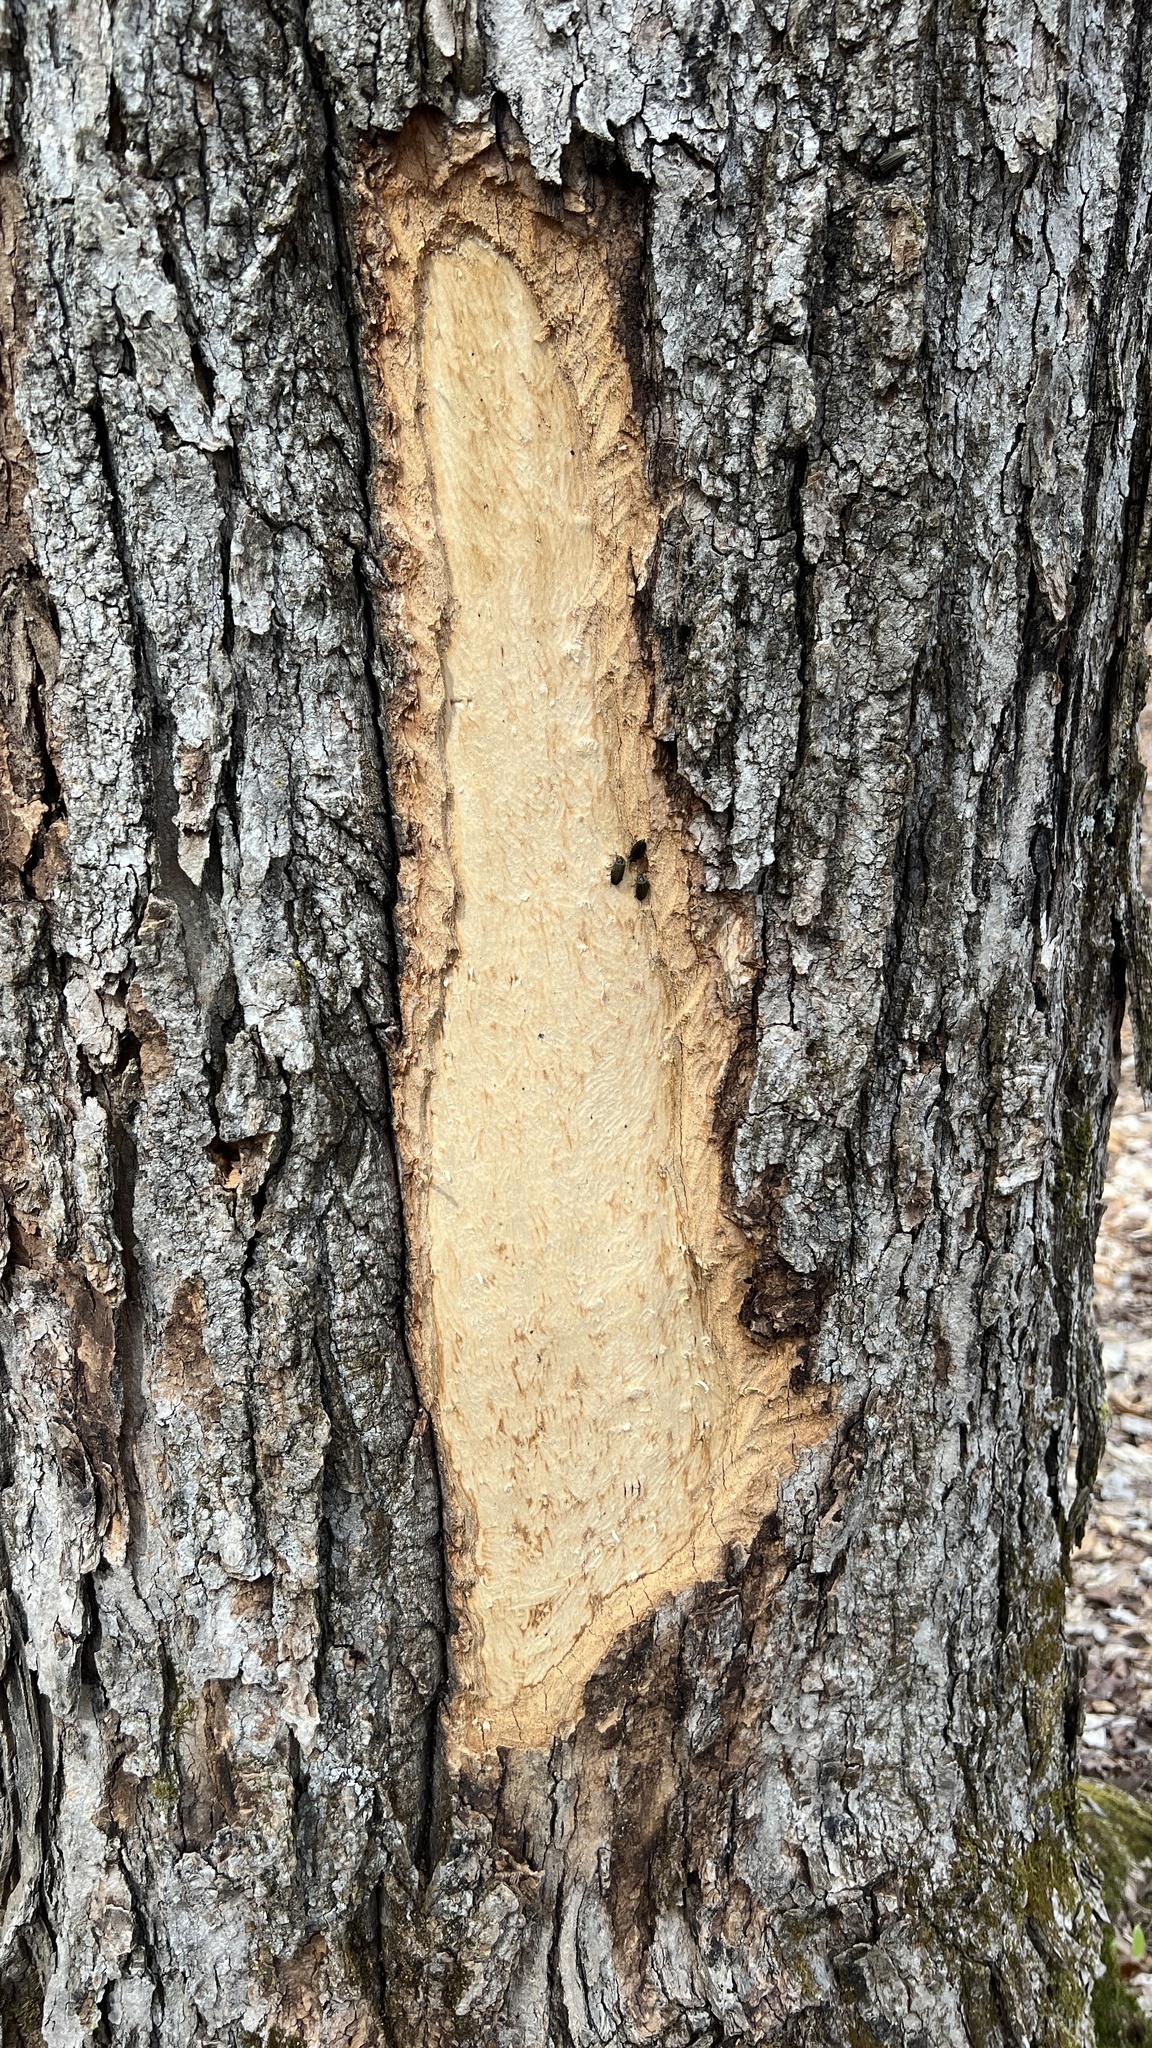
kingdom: Animalia
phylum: Arthropoda
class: Insecta
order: Coleoptera
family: Lampyridae
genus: Photinus
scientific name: Photinus corrusca
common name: Winter firefly
